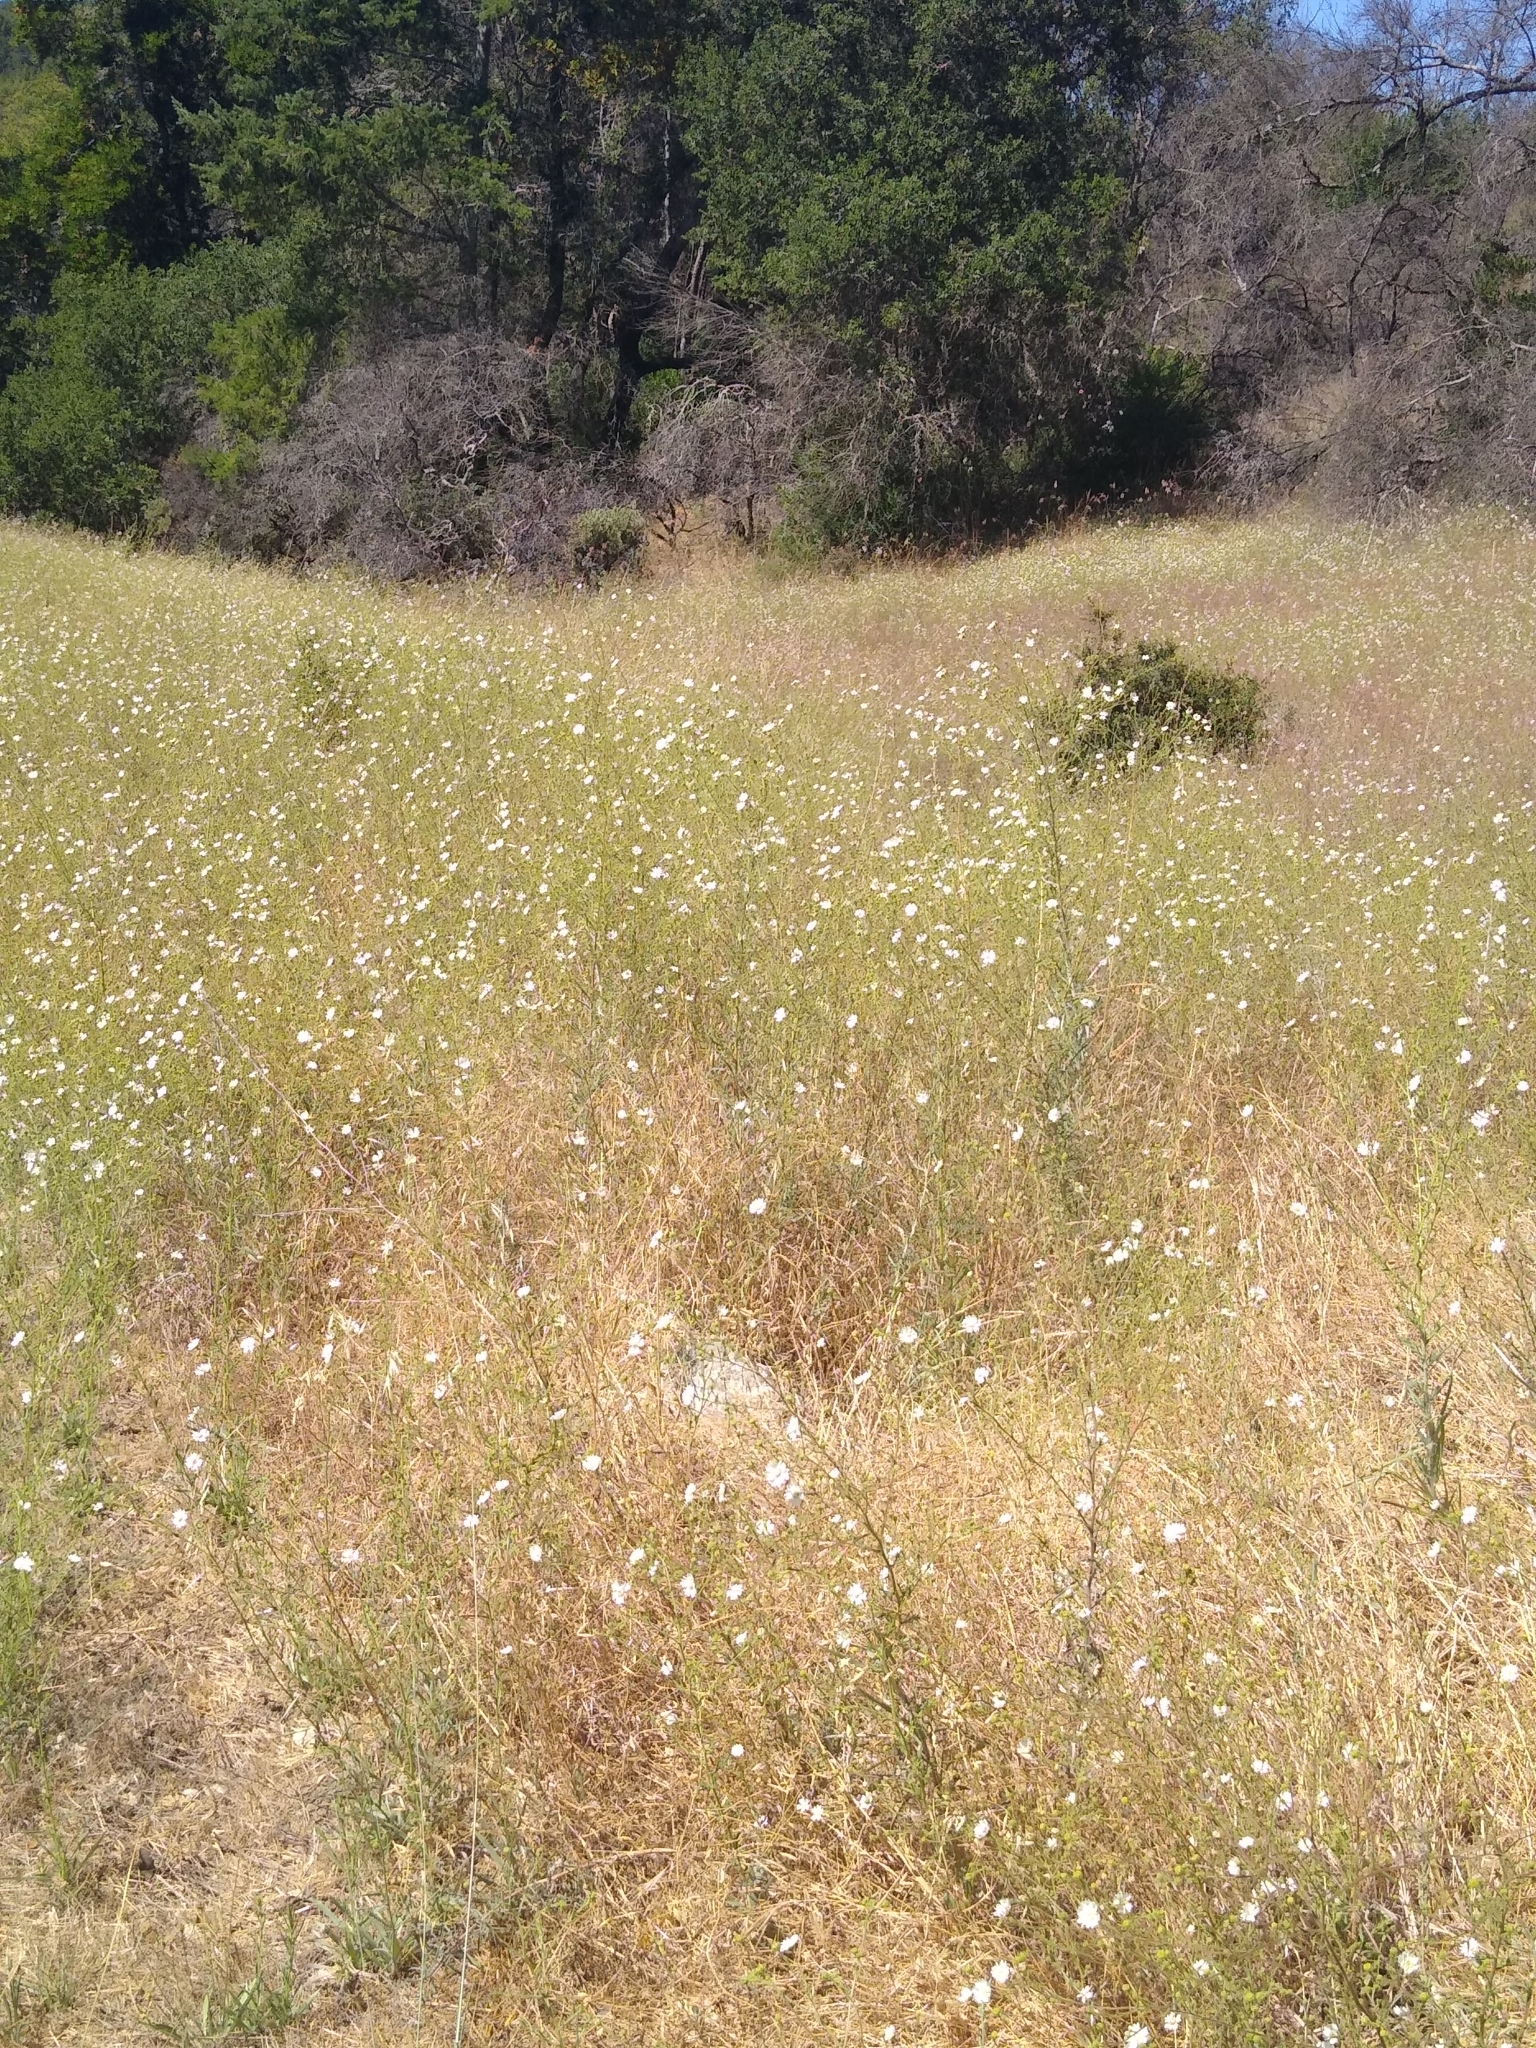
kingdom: Plantae
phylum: Tracheophyta
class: Magnoliopsida
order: Asterales
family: Asteraceae
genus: Hemizonia
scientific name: Hemizonia congesta
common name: Hayfield tarweed
